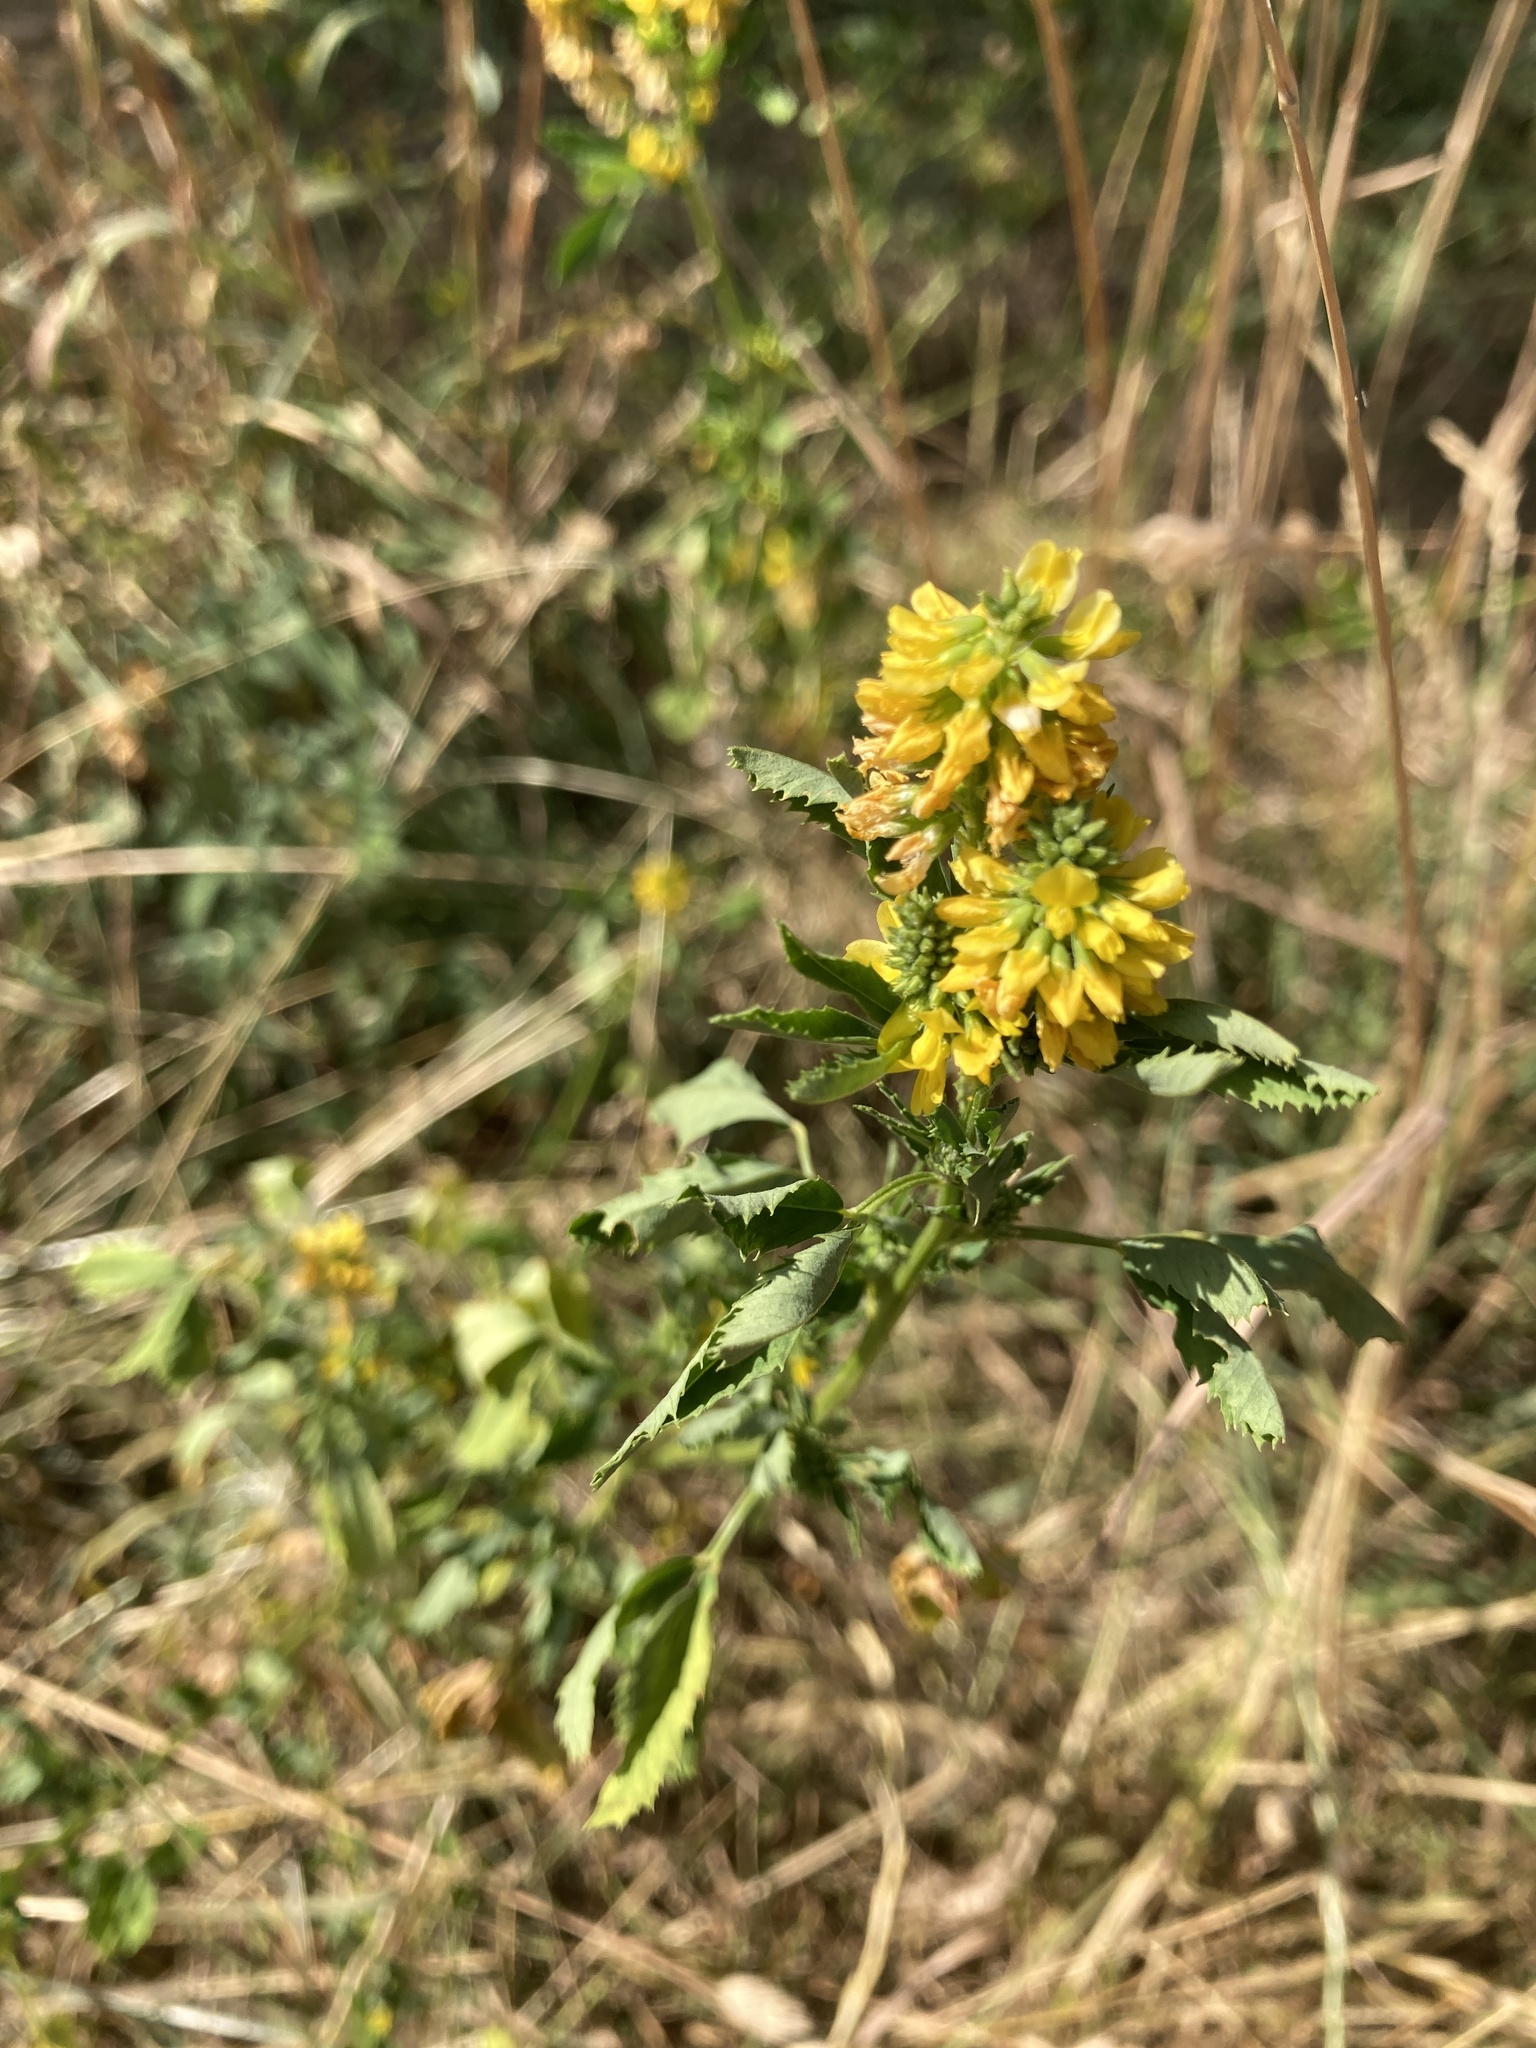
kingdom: Plantae
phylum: Tracheophyta
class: Magnoliopsida
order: Fabales
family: Fabaceae
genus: Melilotus
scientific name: Melilotus indicus
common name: Small melilot
